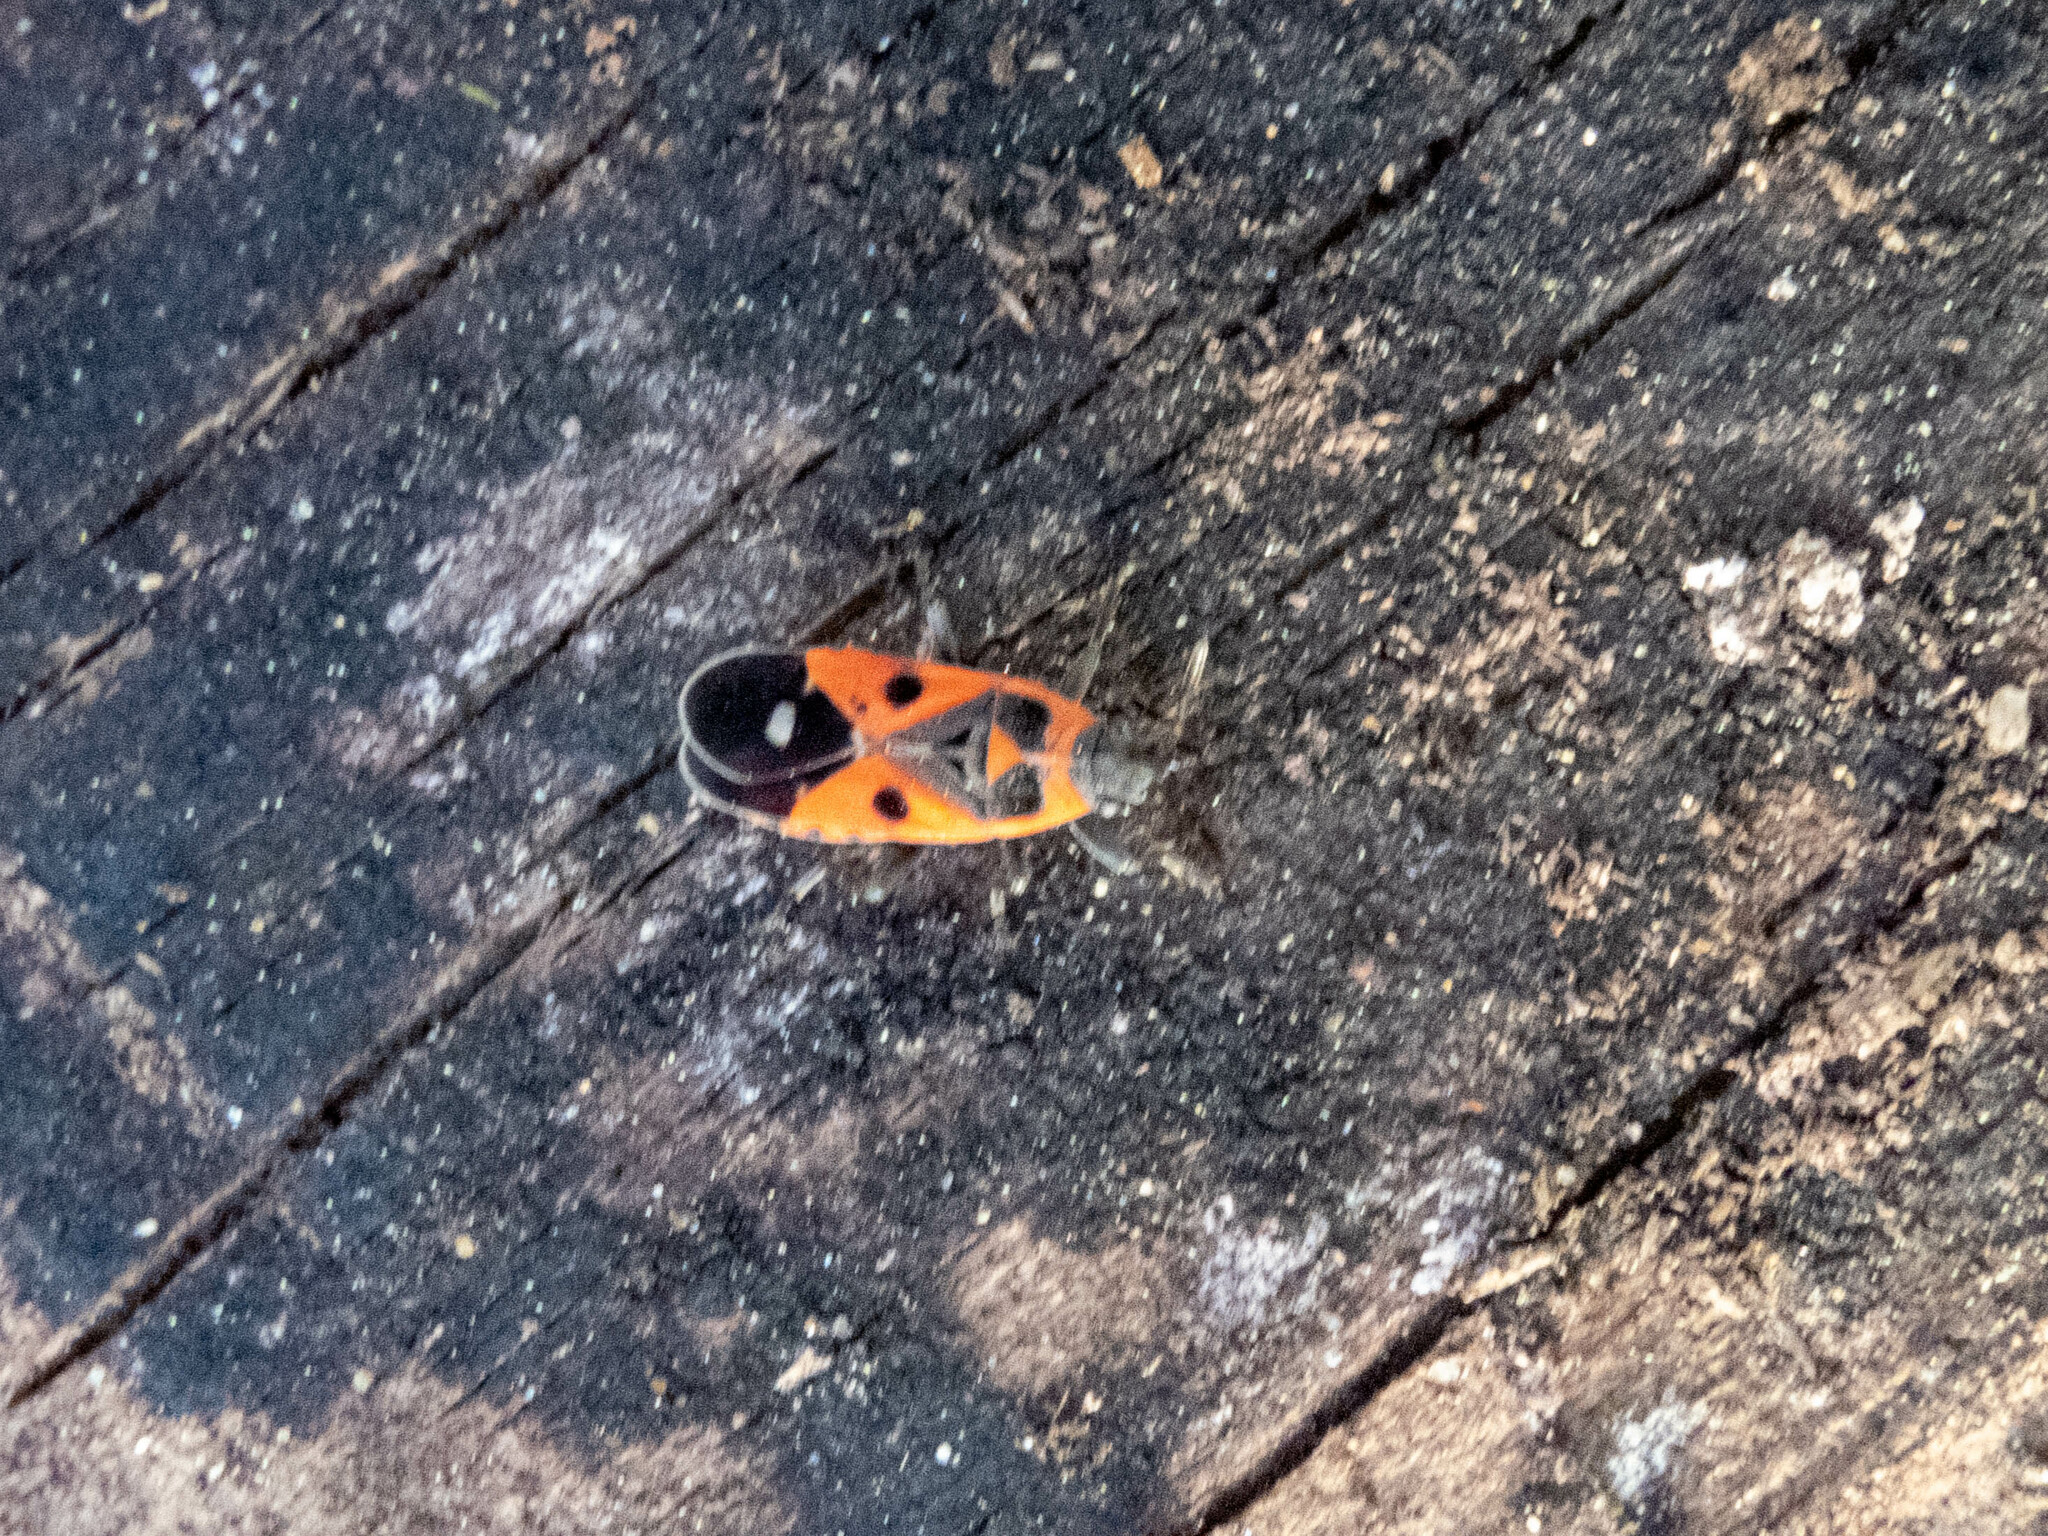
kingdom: Animalia
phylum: Arthropoda
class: Insecta
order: Hemiptera
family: Lygaeidae
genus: Melanocoryphus
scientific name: Melanocoryphus albomaculatus
